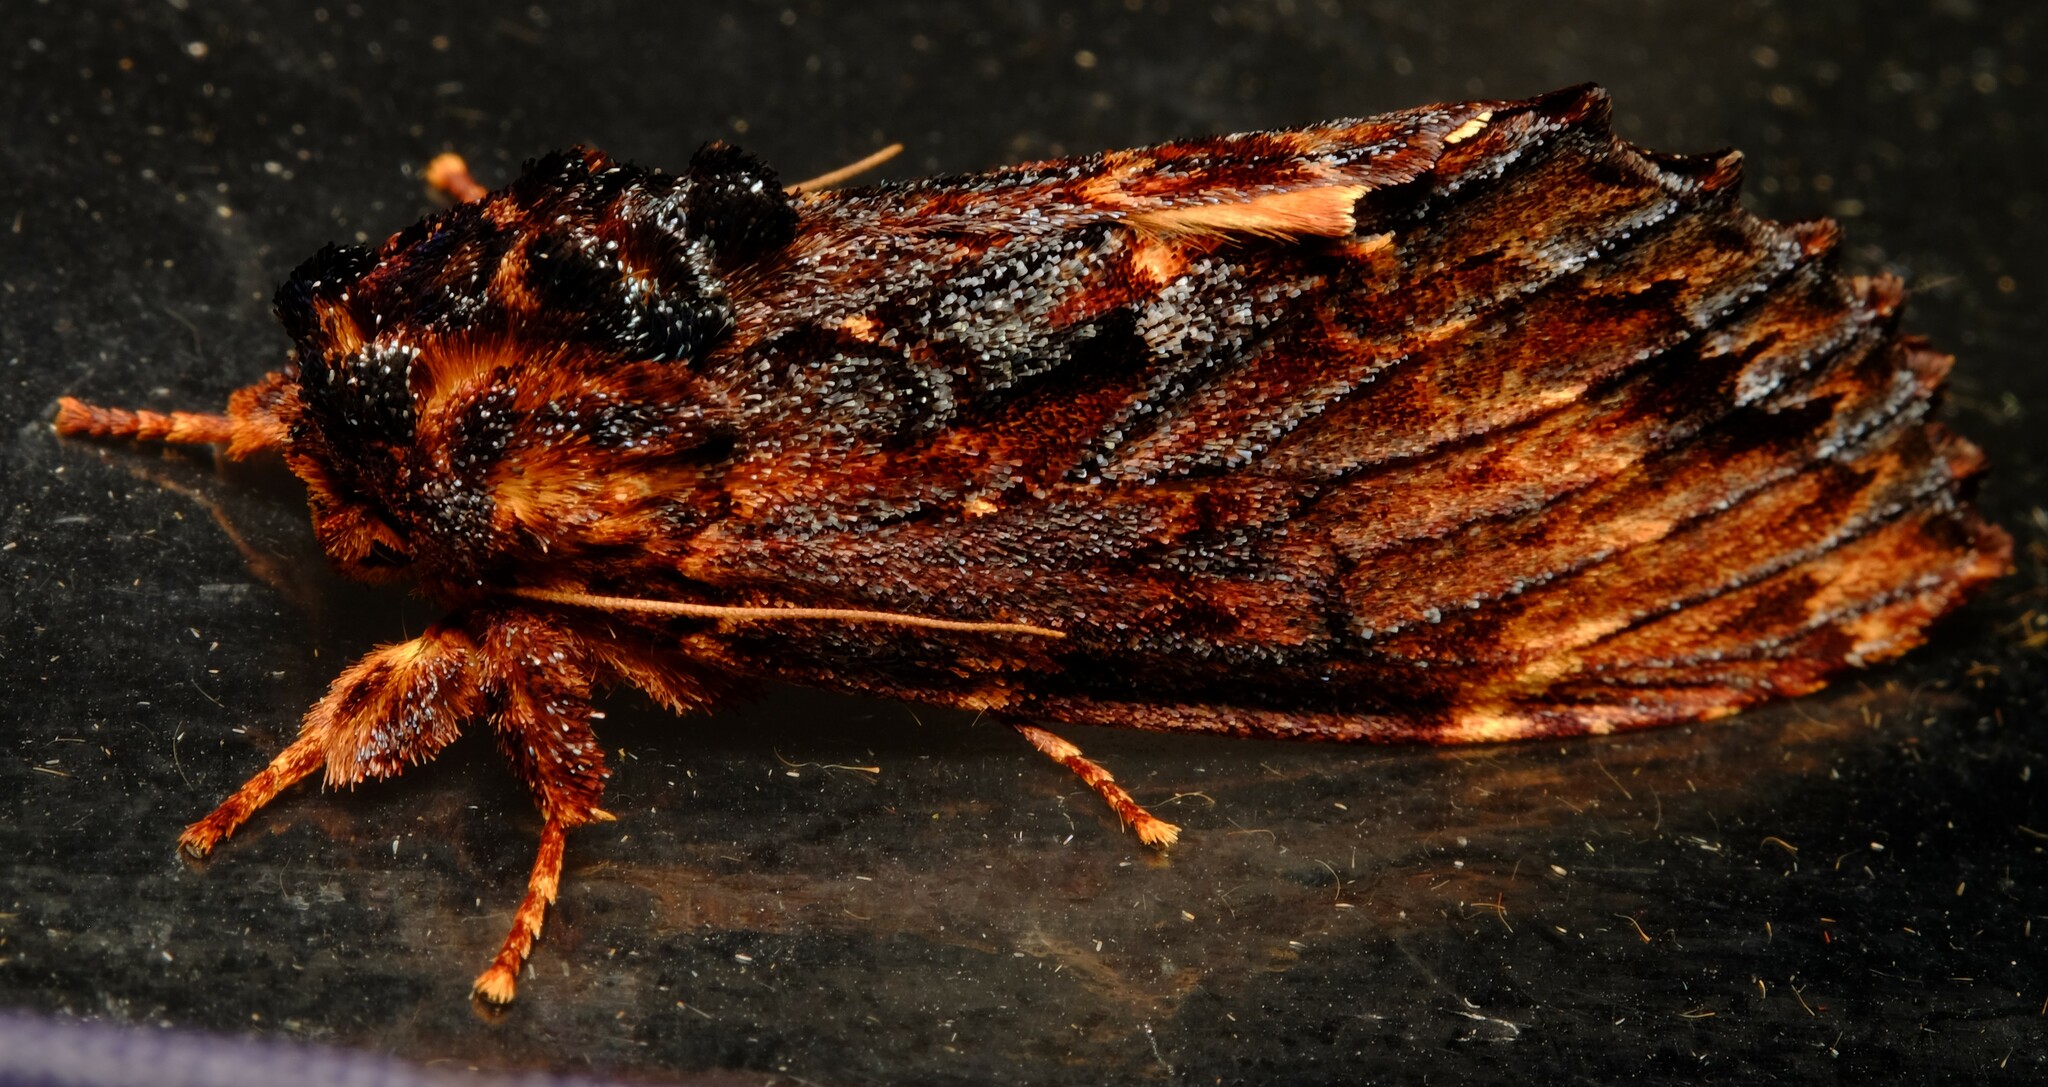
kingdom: Animalia
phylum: Arthropoda
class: Insecta
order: Lepidoptera
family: Notodontidae
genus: Sorama
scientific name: Sorama bicolor
